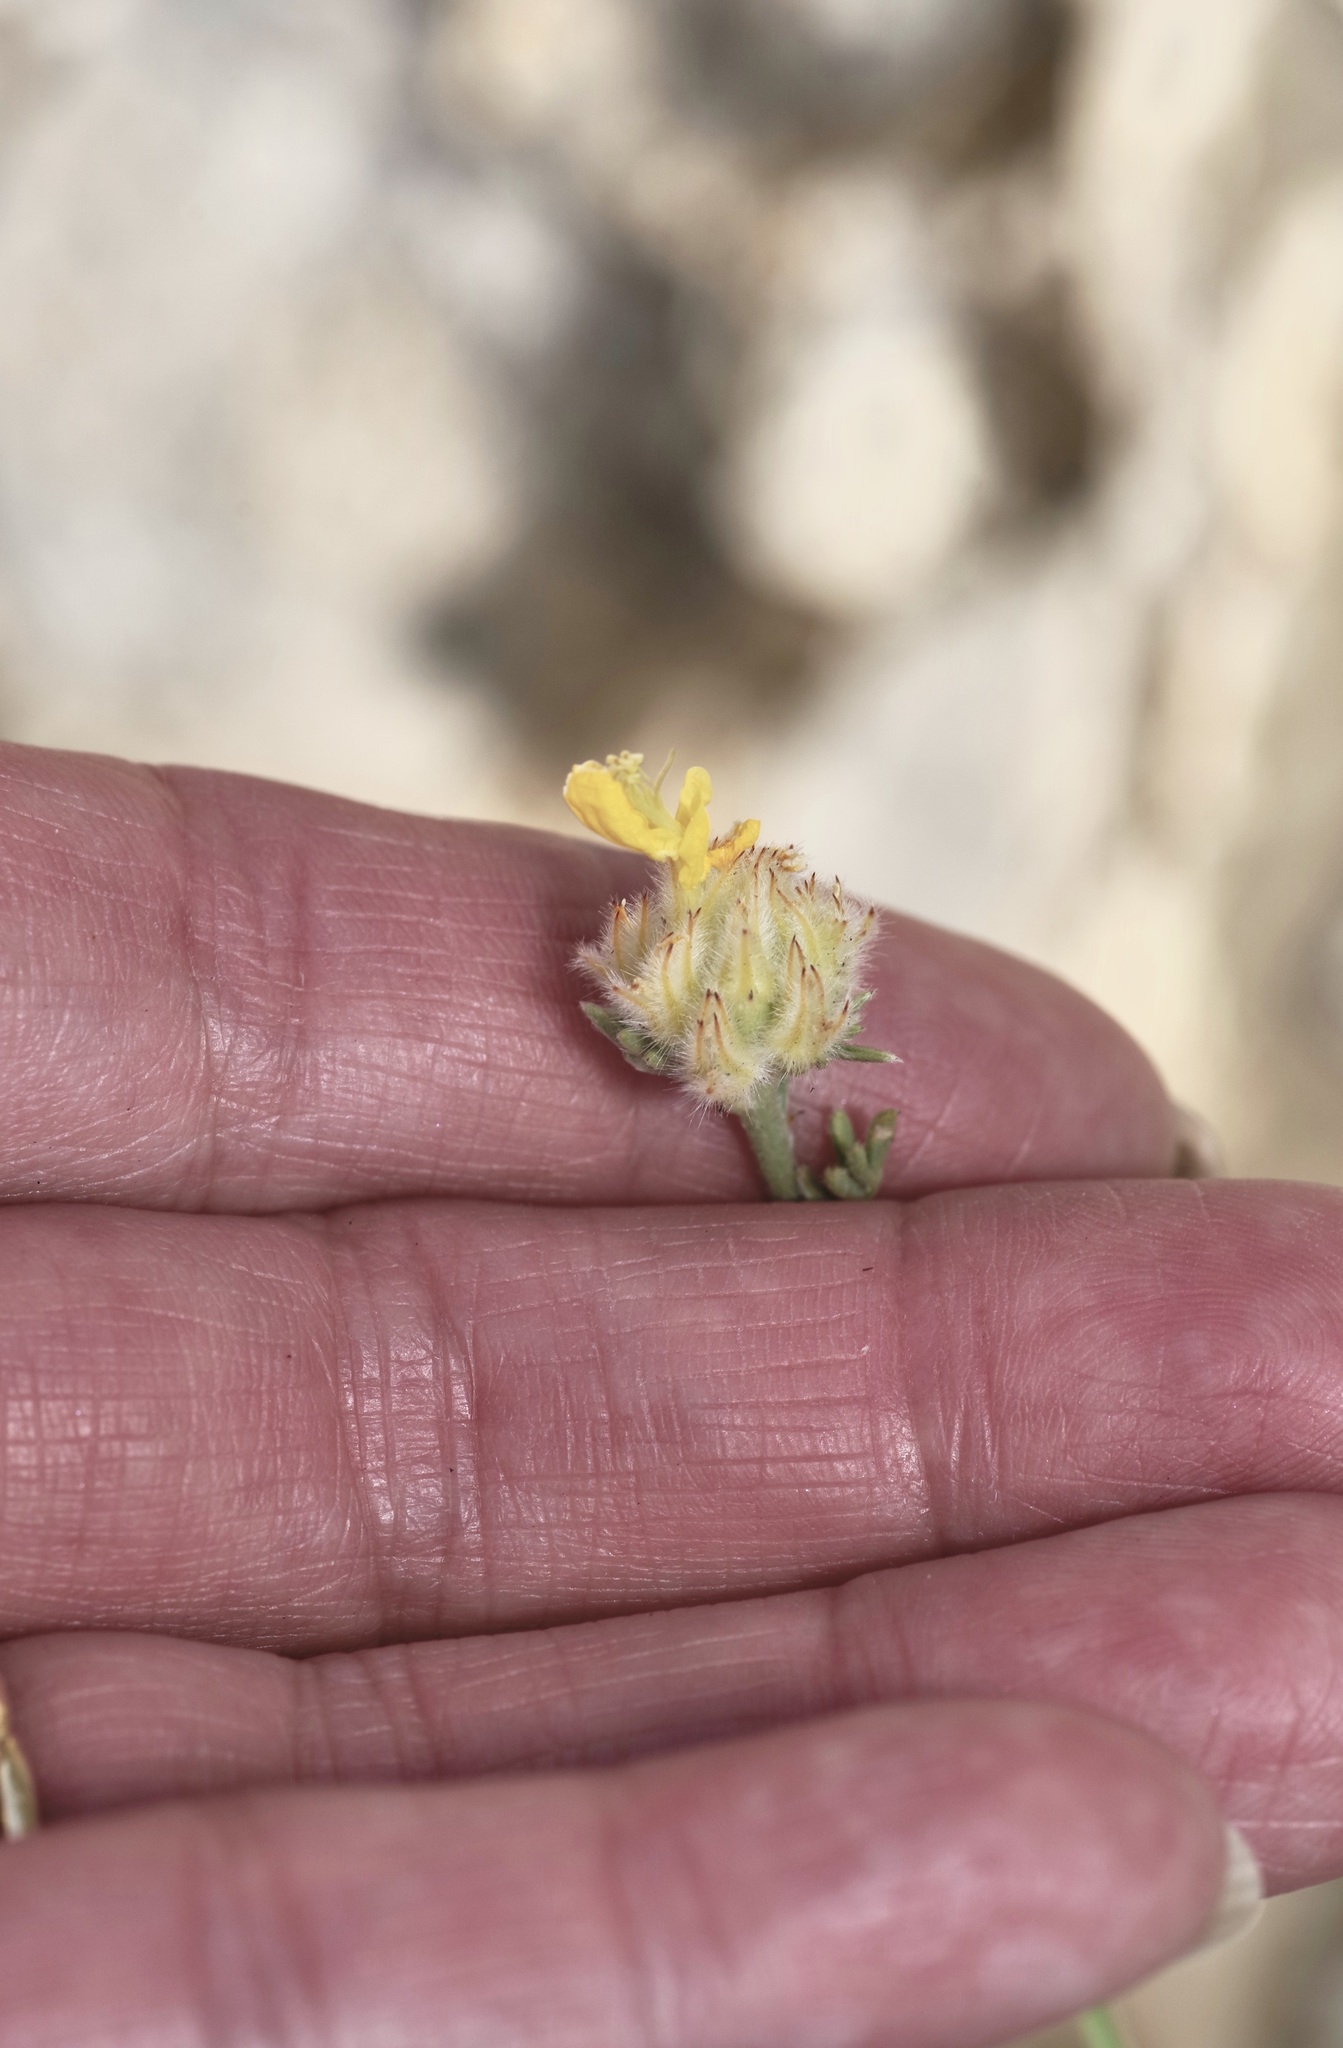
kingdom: Plantae
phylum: Tracheophyta
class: Magnoliopsida
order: Fabales
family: Fabaceae
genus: Dalea
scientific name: Dalea aurea
